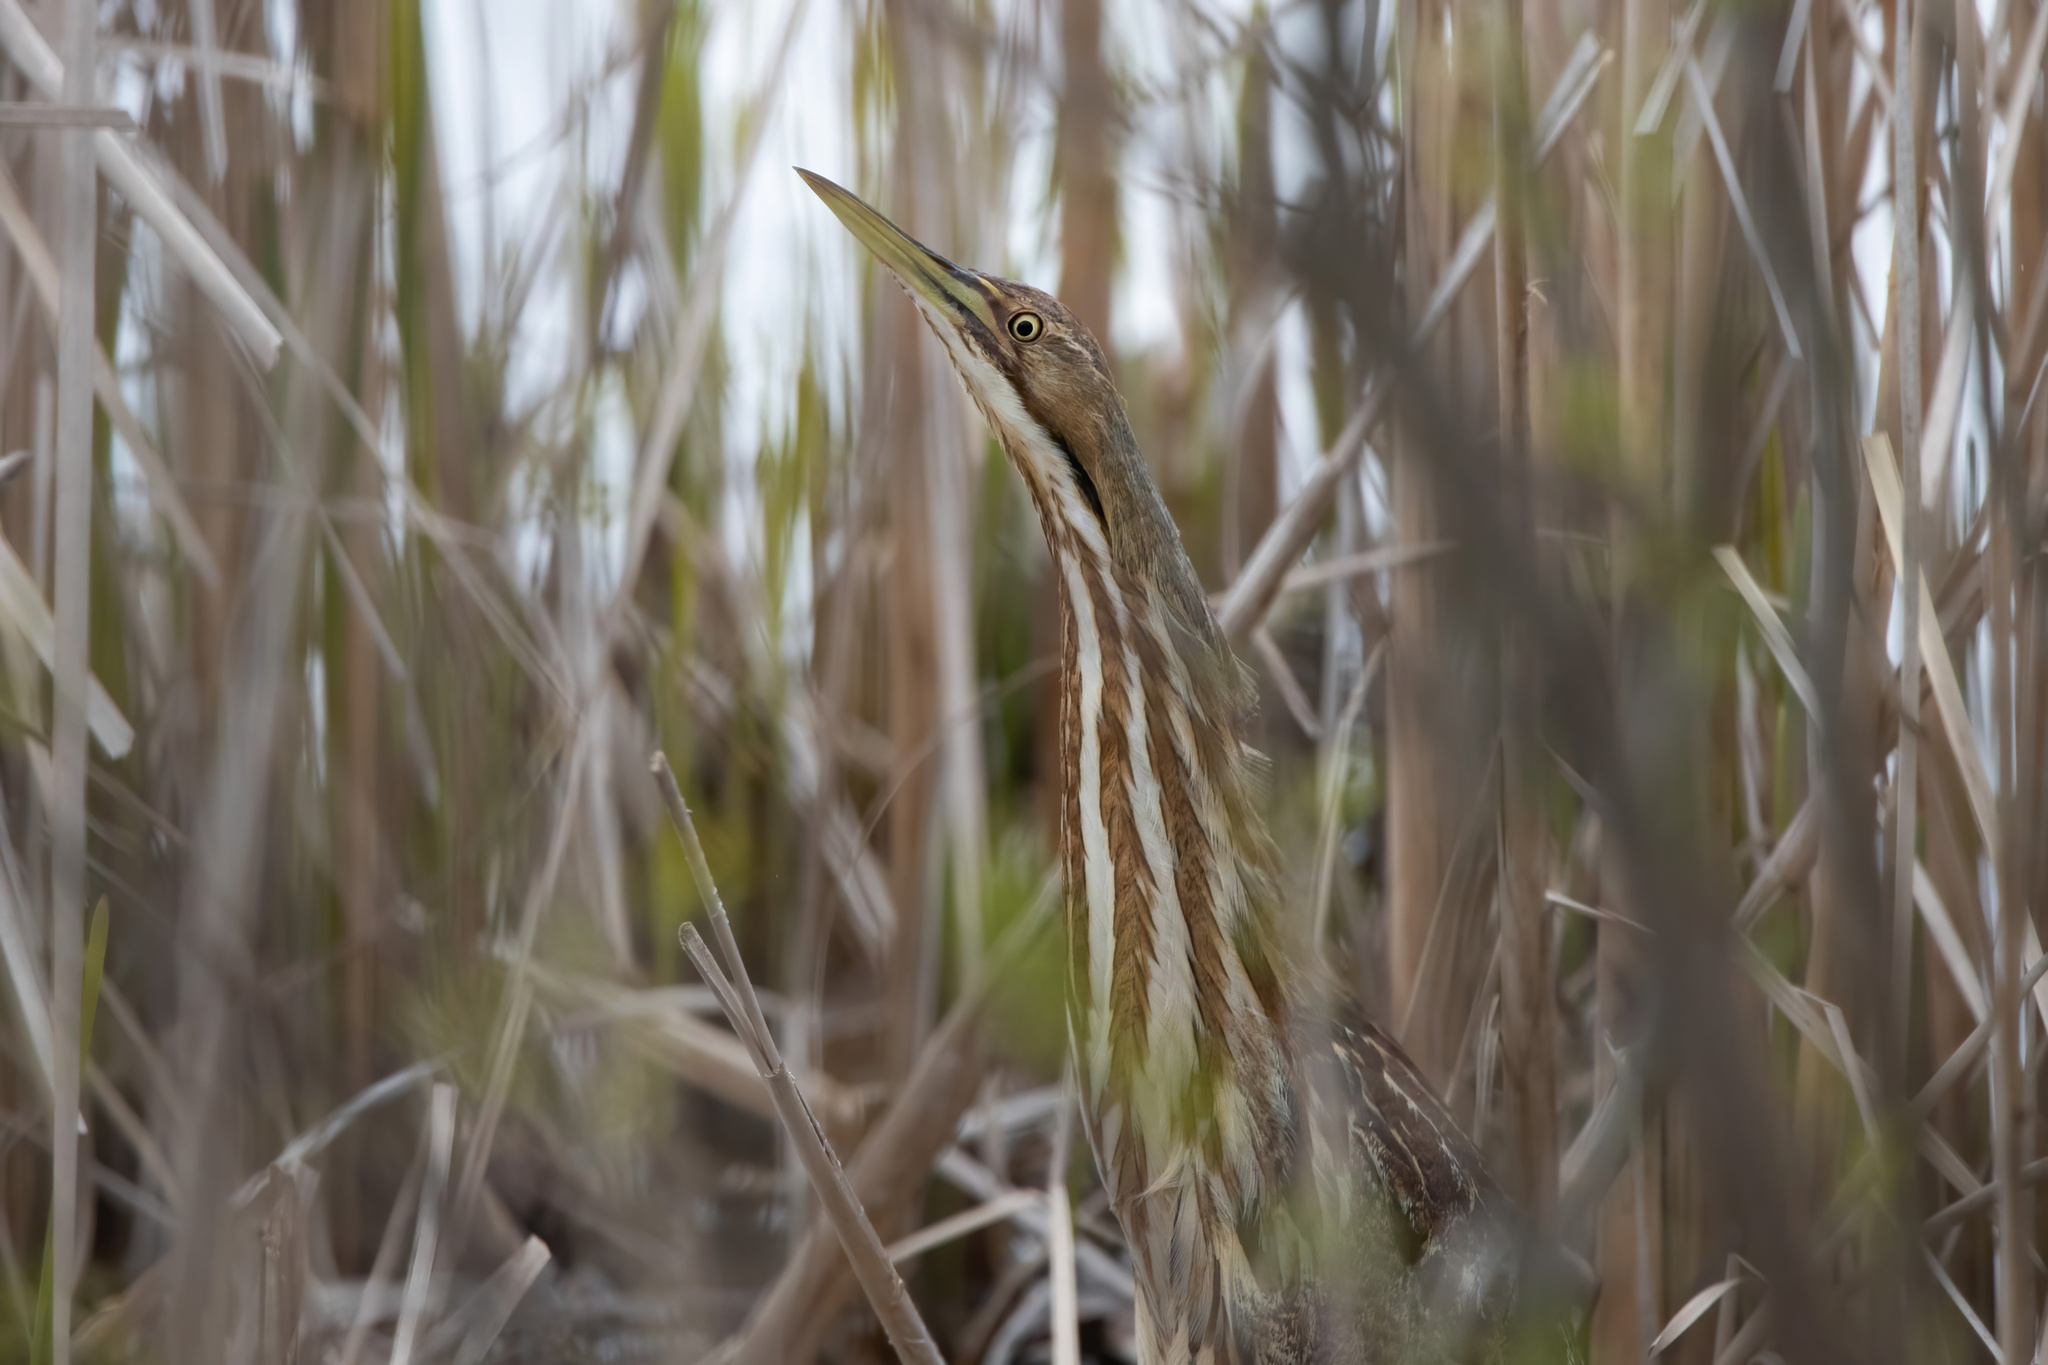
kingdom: Animalia
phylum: Chordata
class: Aves
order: Pelecaniformes
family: Ardeidae
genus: Botaurus
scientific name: Botaurus lentiginosus
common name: American bittern
